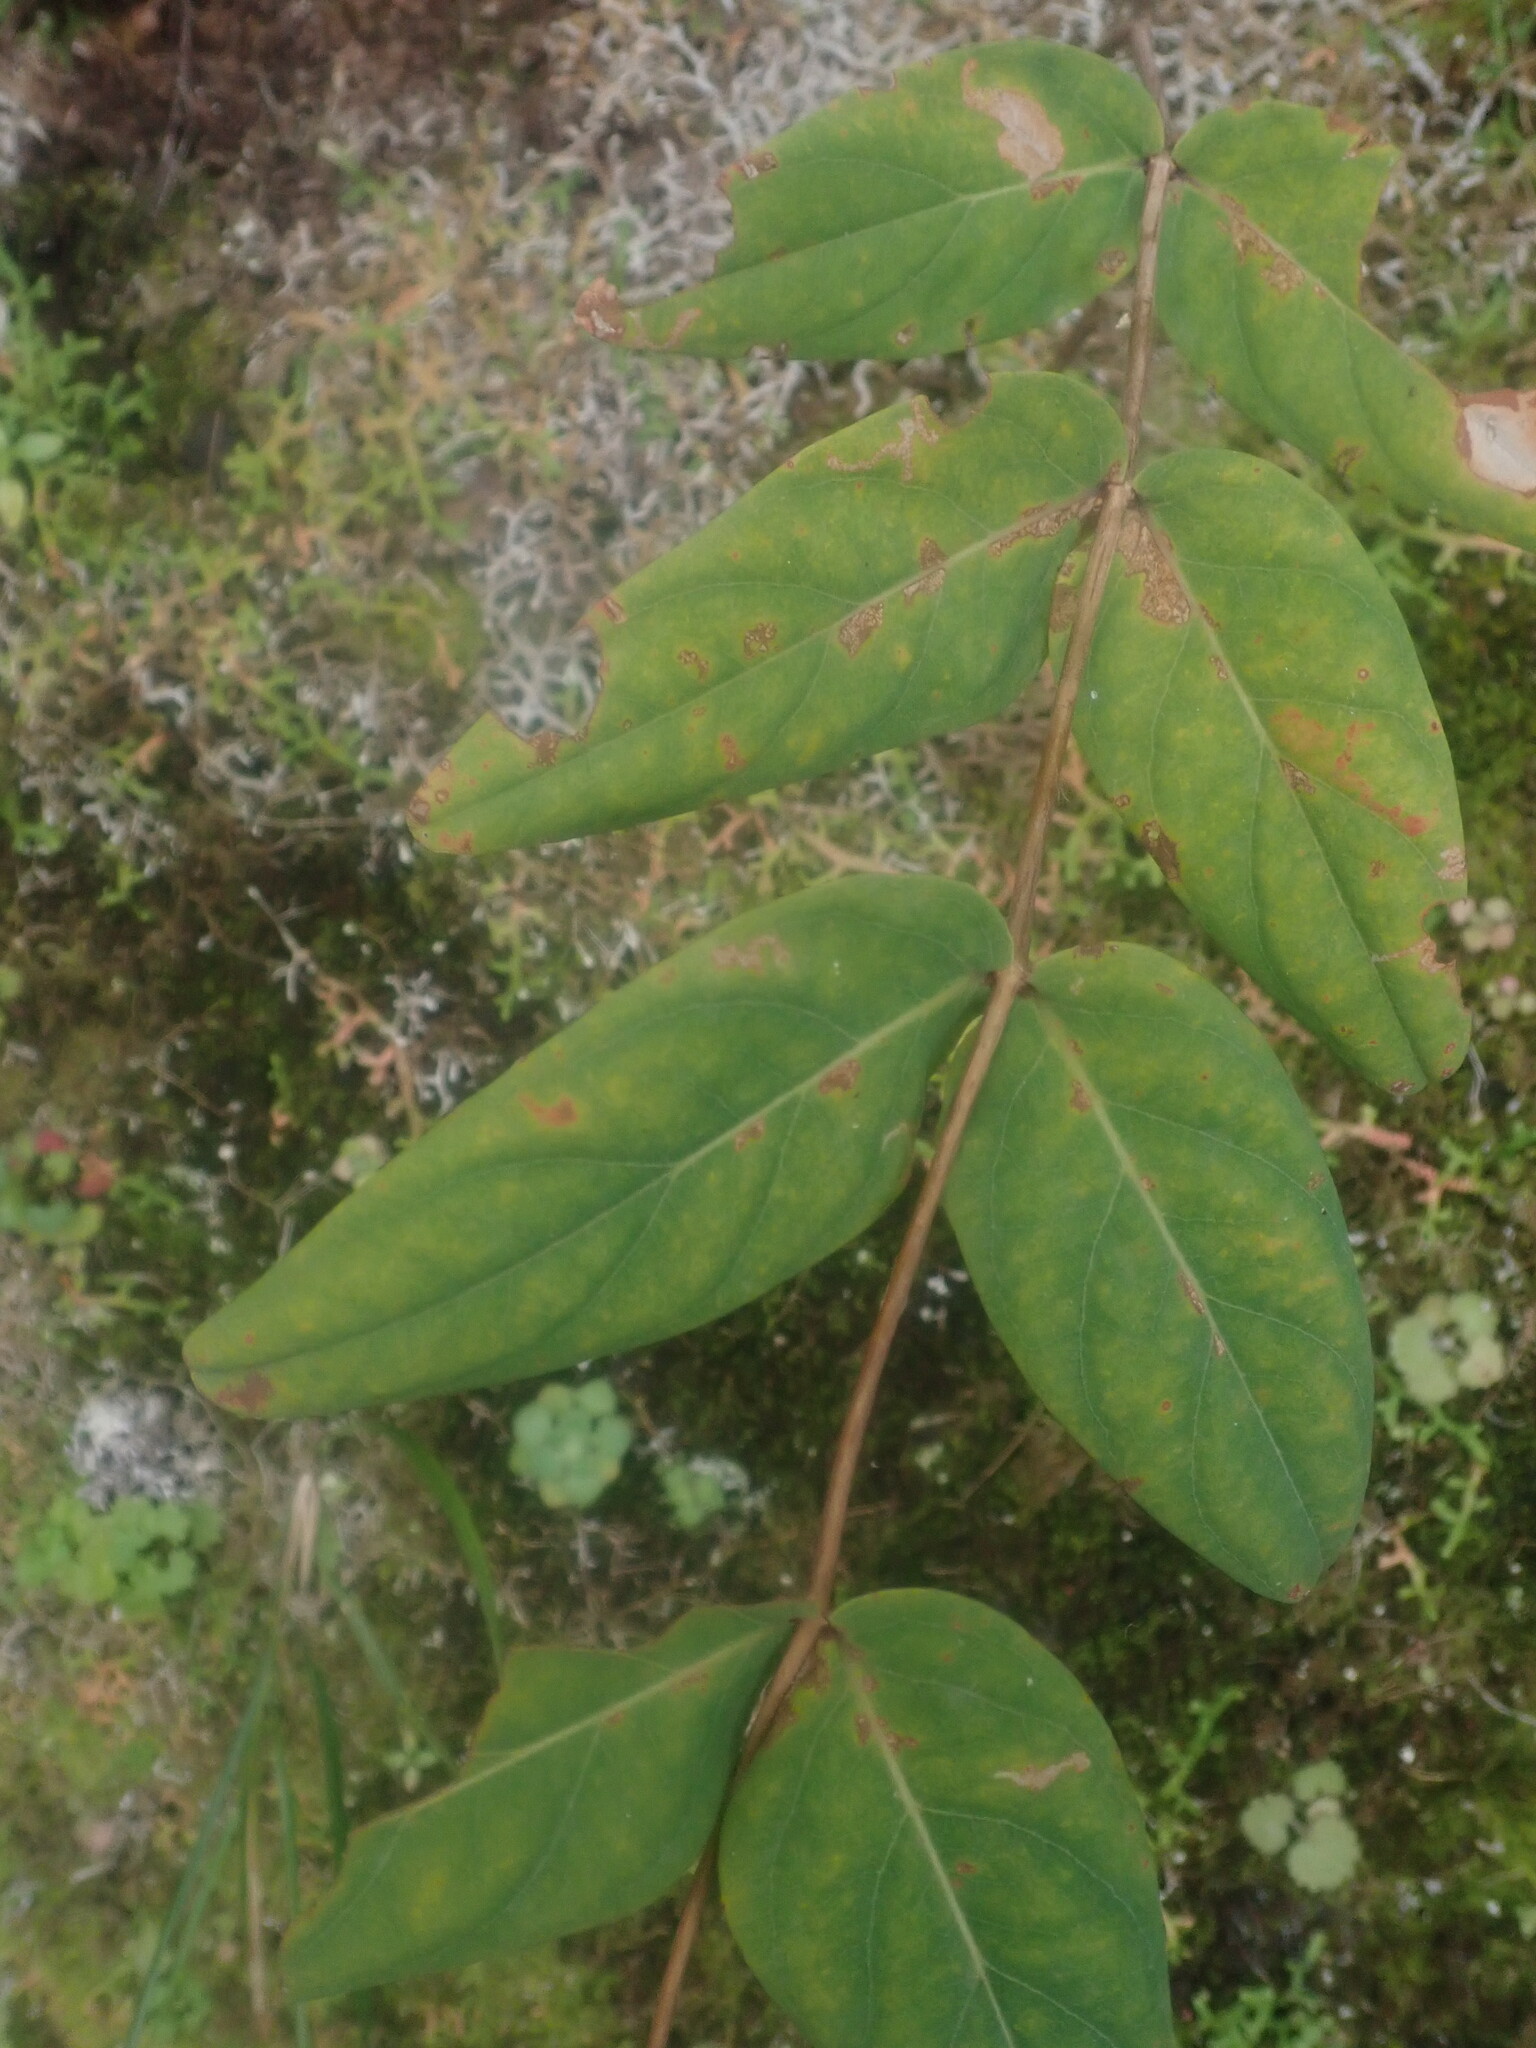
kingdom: Plantae
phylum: Tracheophyta
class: Magnoliopsida
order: Malpighiales
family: Hypericaceae
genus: Hypericum
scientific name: Hypericum grandifolium
